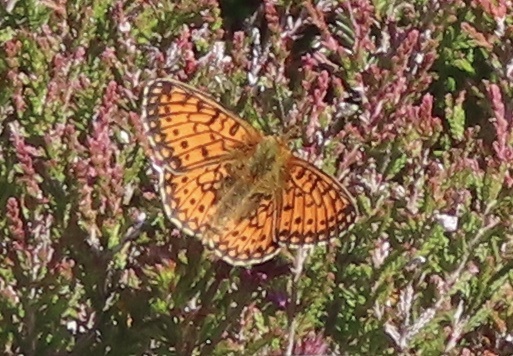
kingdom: Animalia
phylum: Arthropoda
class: Insecta
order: Lepidoptera
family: Nymphalidae
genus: Boloria
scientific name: Boloria selene
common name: Small pearl-bordered fritillary
